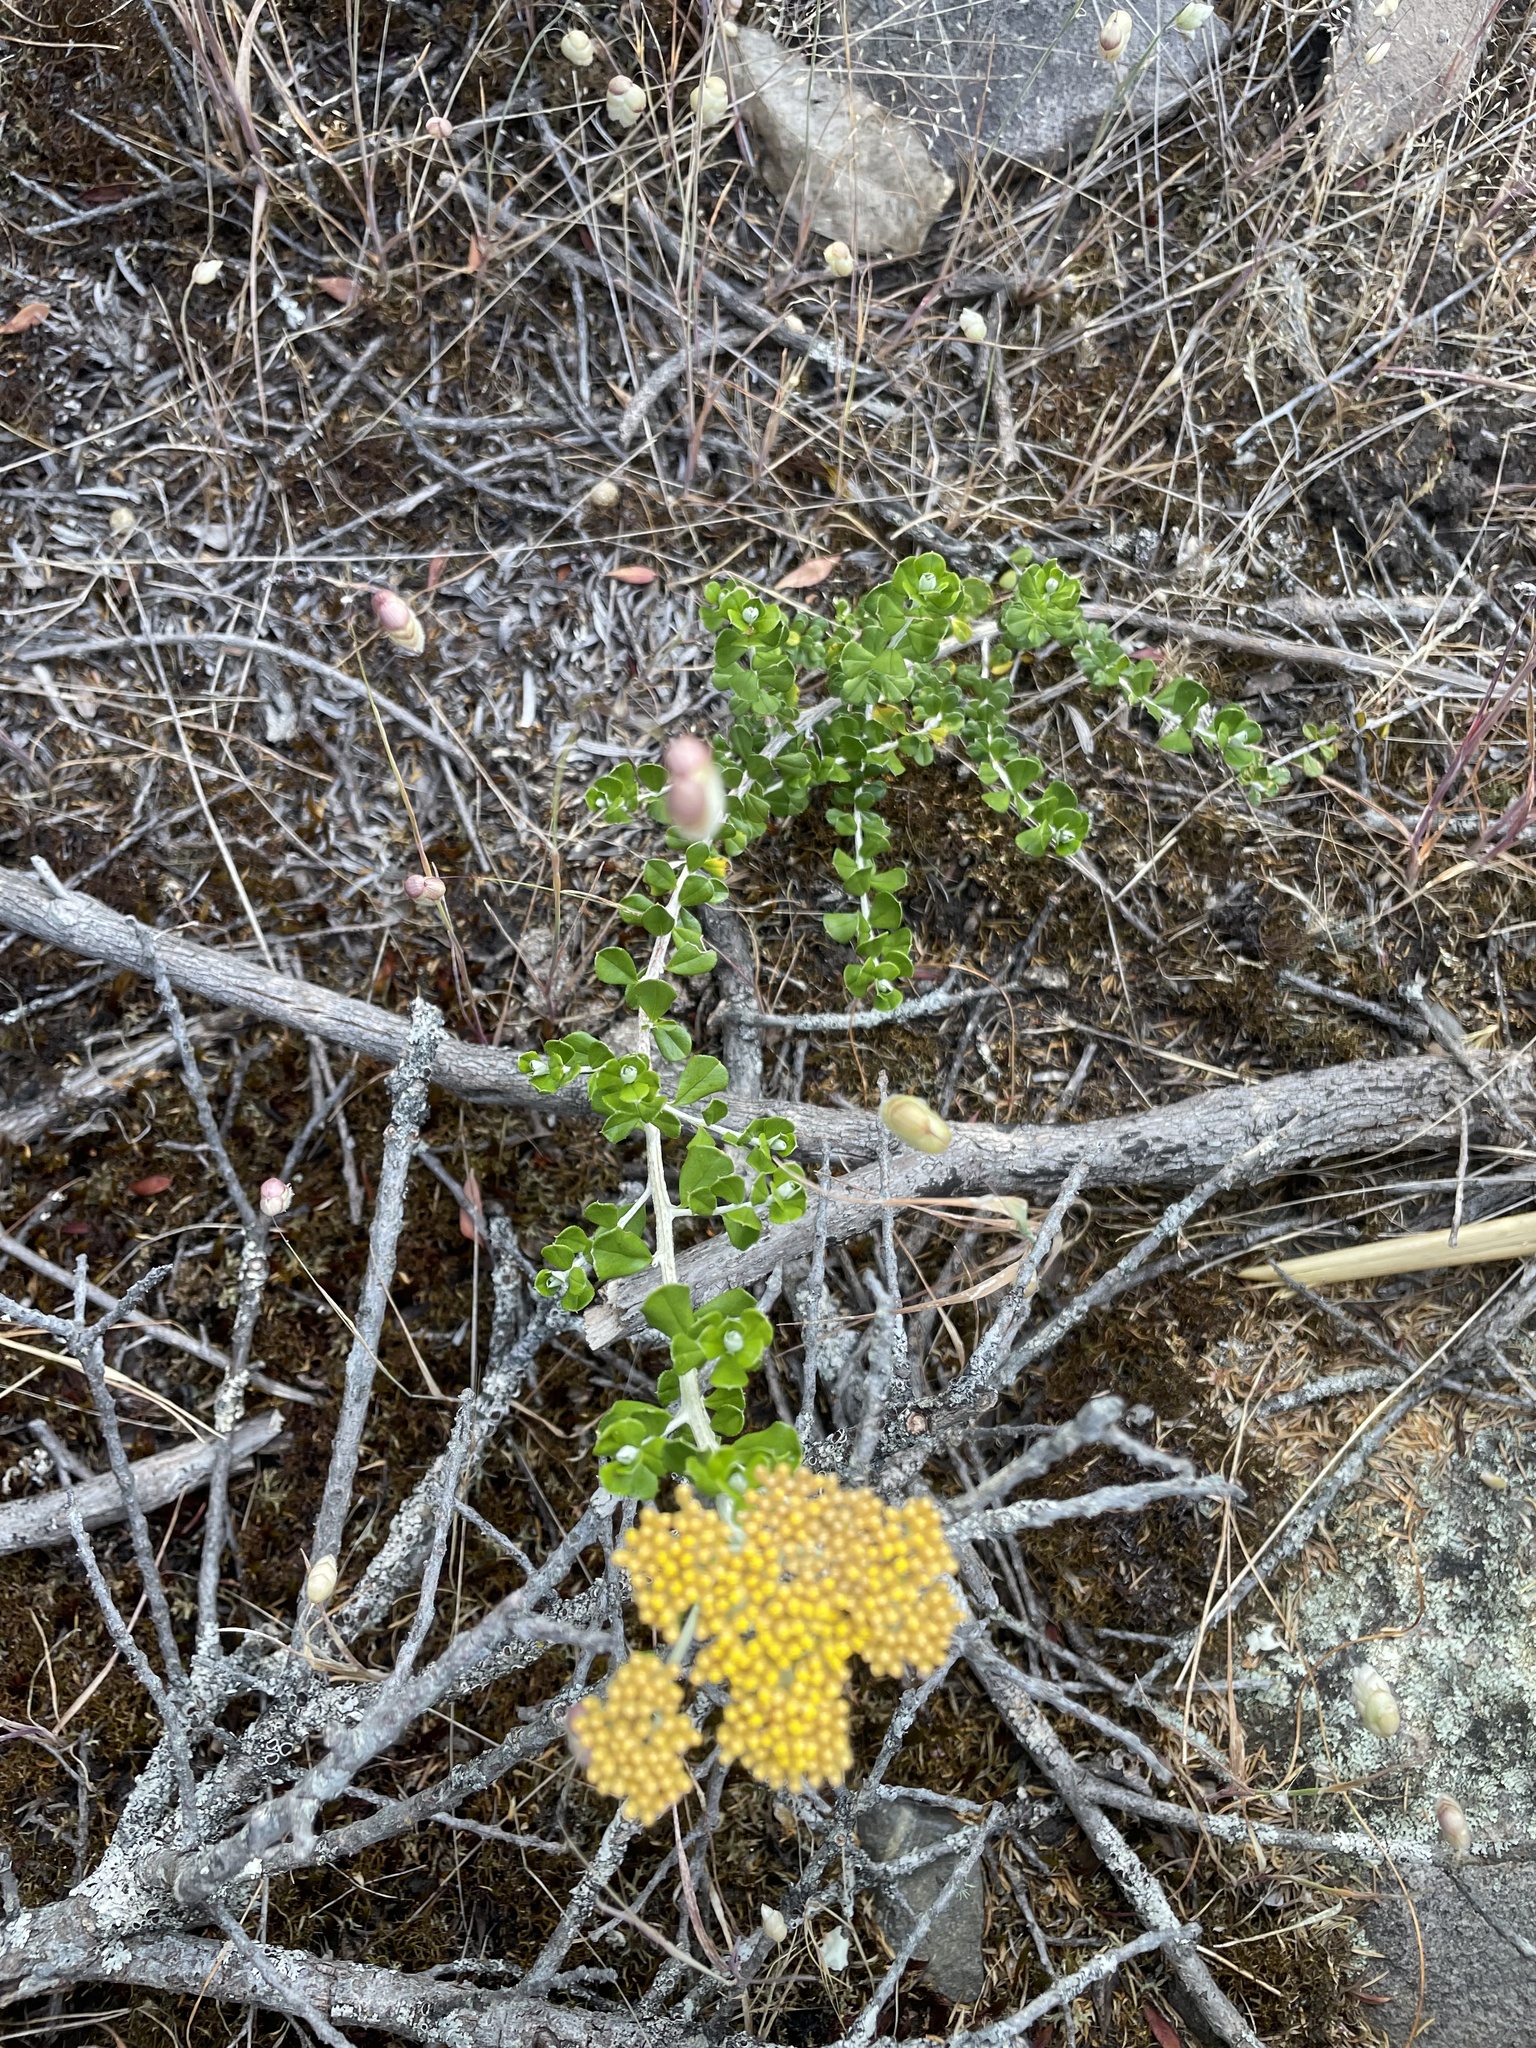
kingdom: Plantae
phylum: Tracheophyta
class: Magnoliopsida
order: Asterales
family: Asteraceae
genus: Ozothamnus
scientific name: Ozothamnus obcordatus
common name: Grey everlasting
